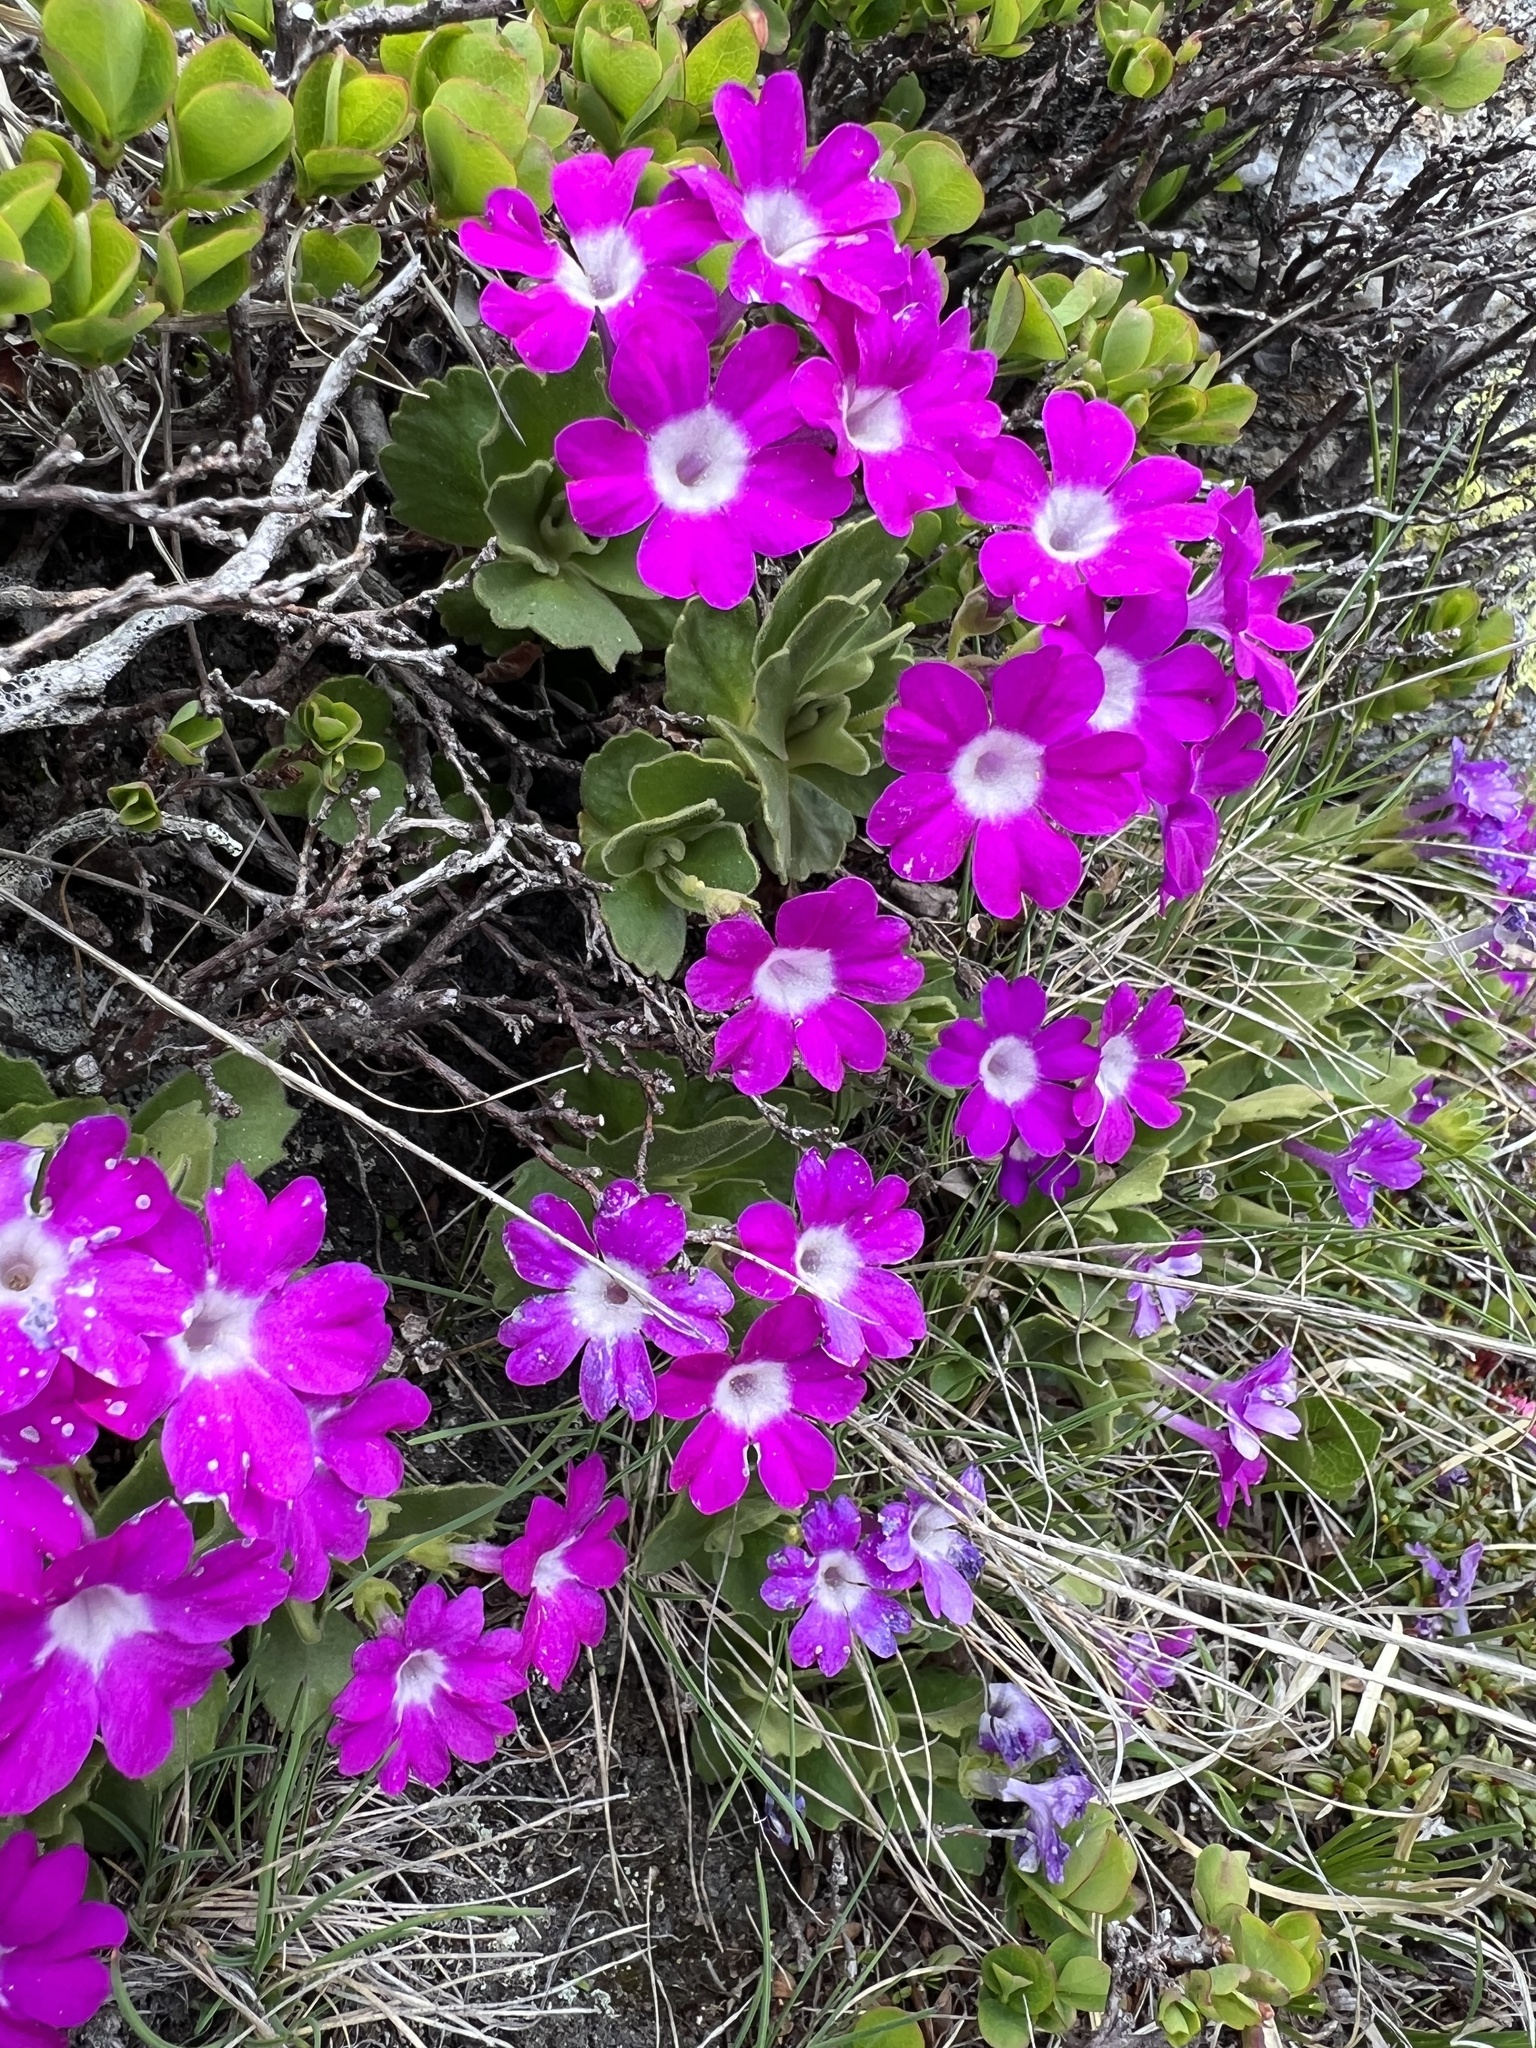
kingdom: Plantae
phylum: Tracheophyta
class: Magnoliopsida
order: Ericales
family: Primulaceae
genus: Primula
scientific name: Primula hirsuta
